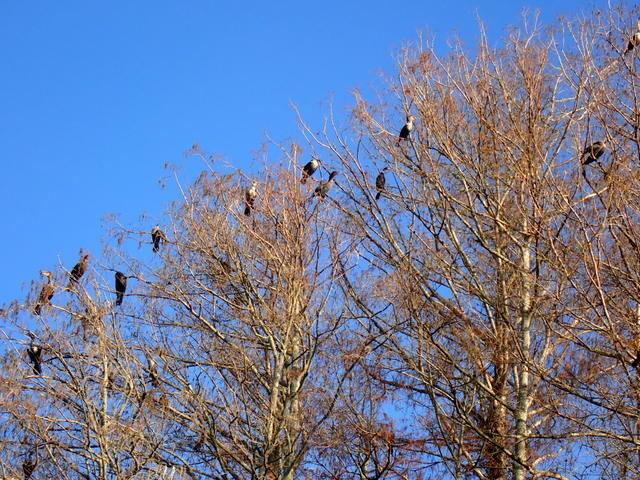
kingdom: Animalia
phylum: Chordata
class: Aves
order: Suliformes
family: Phalacrocoracidae
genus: Phalacrocorax
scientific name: Phalacrocorax auritus
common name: Double-crested cormorant
